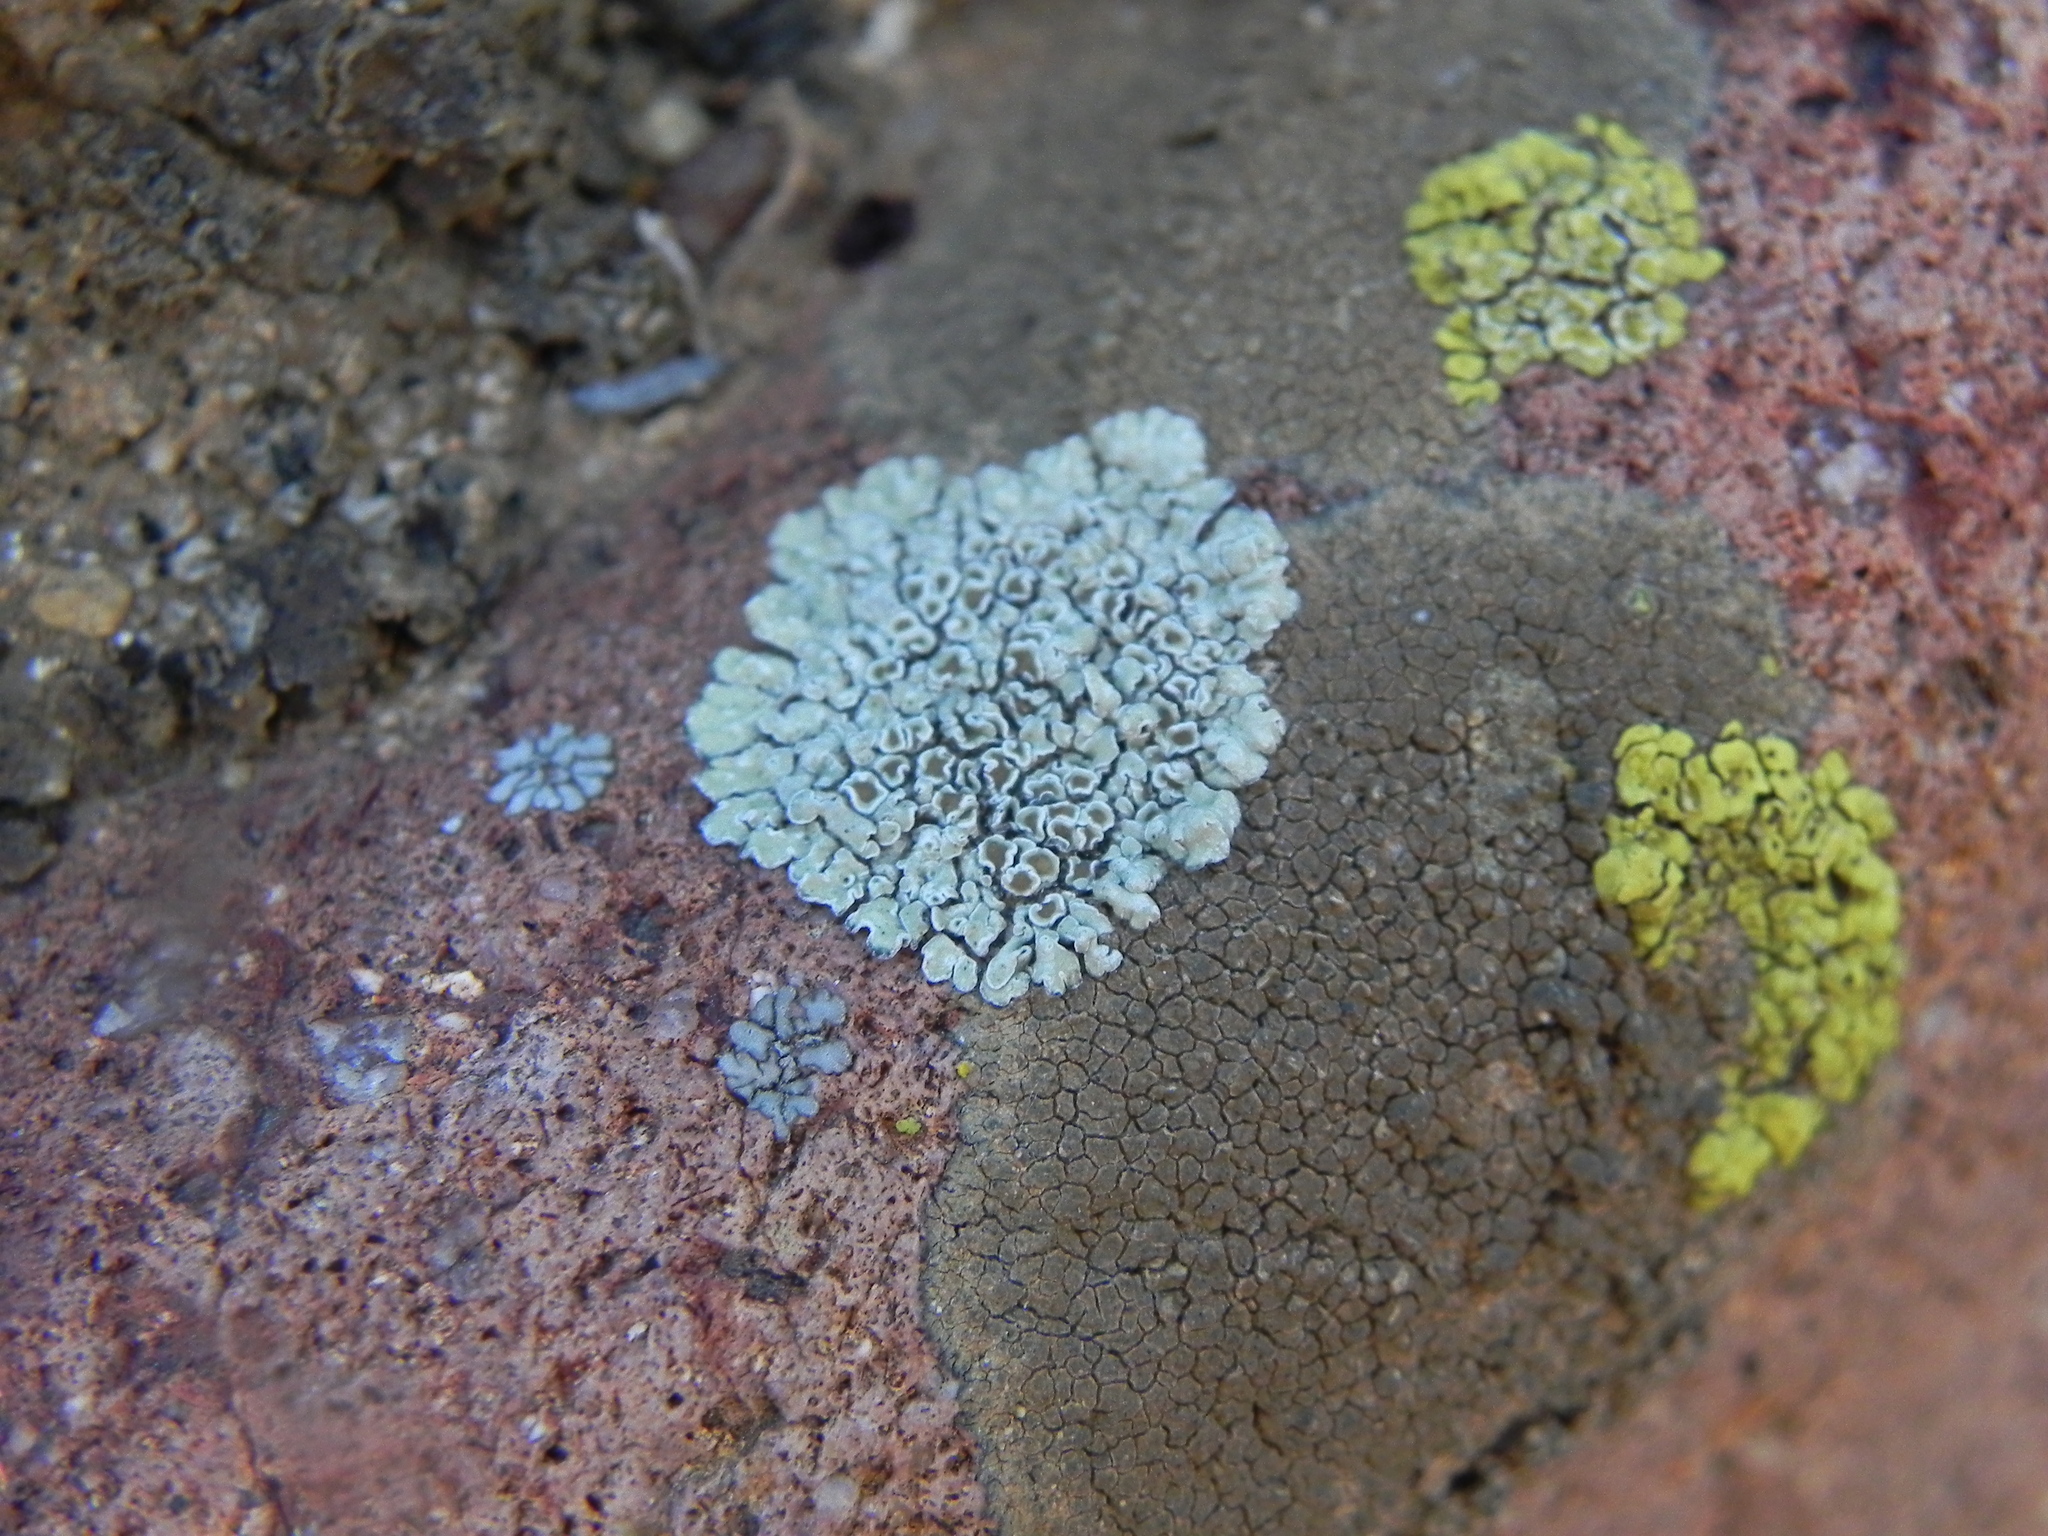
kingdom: Fungi
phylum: Ascomycota
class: Lecanoromycetes
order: Lecanorales
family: Lecanoraceae
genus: Protoparmeliopsis
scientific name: Protoparmeliopsis muralis
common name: Stonewall rim lichen
